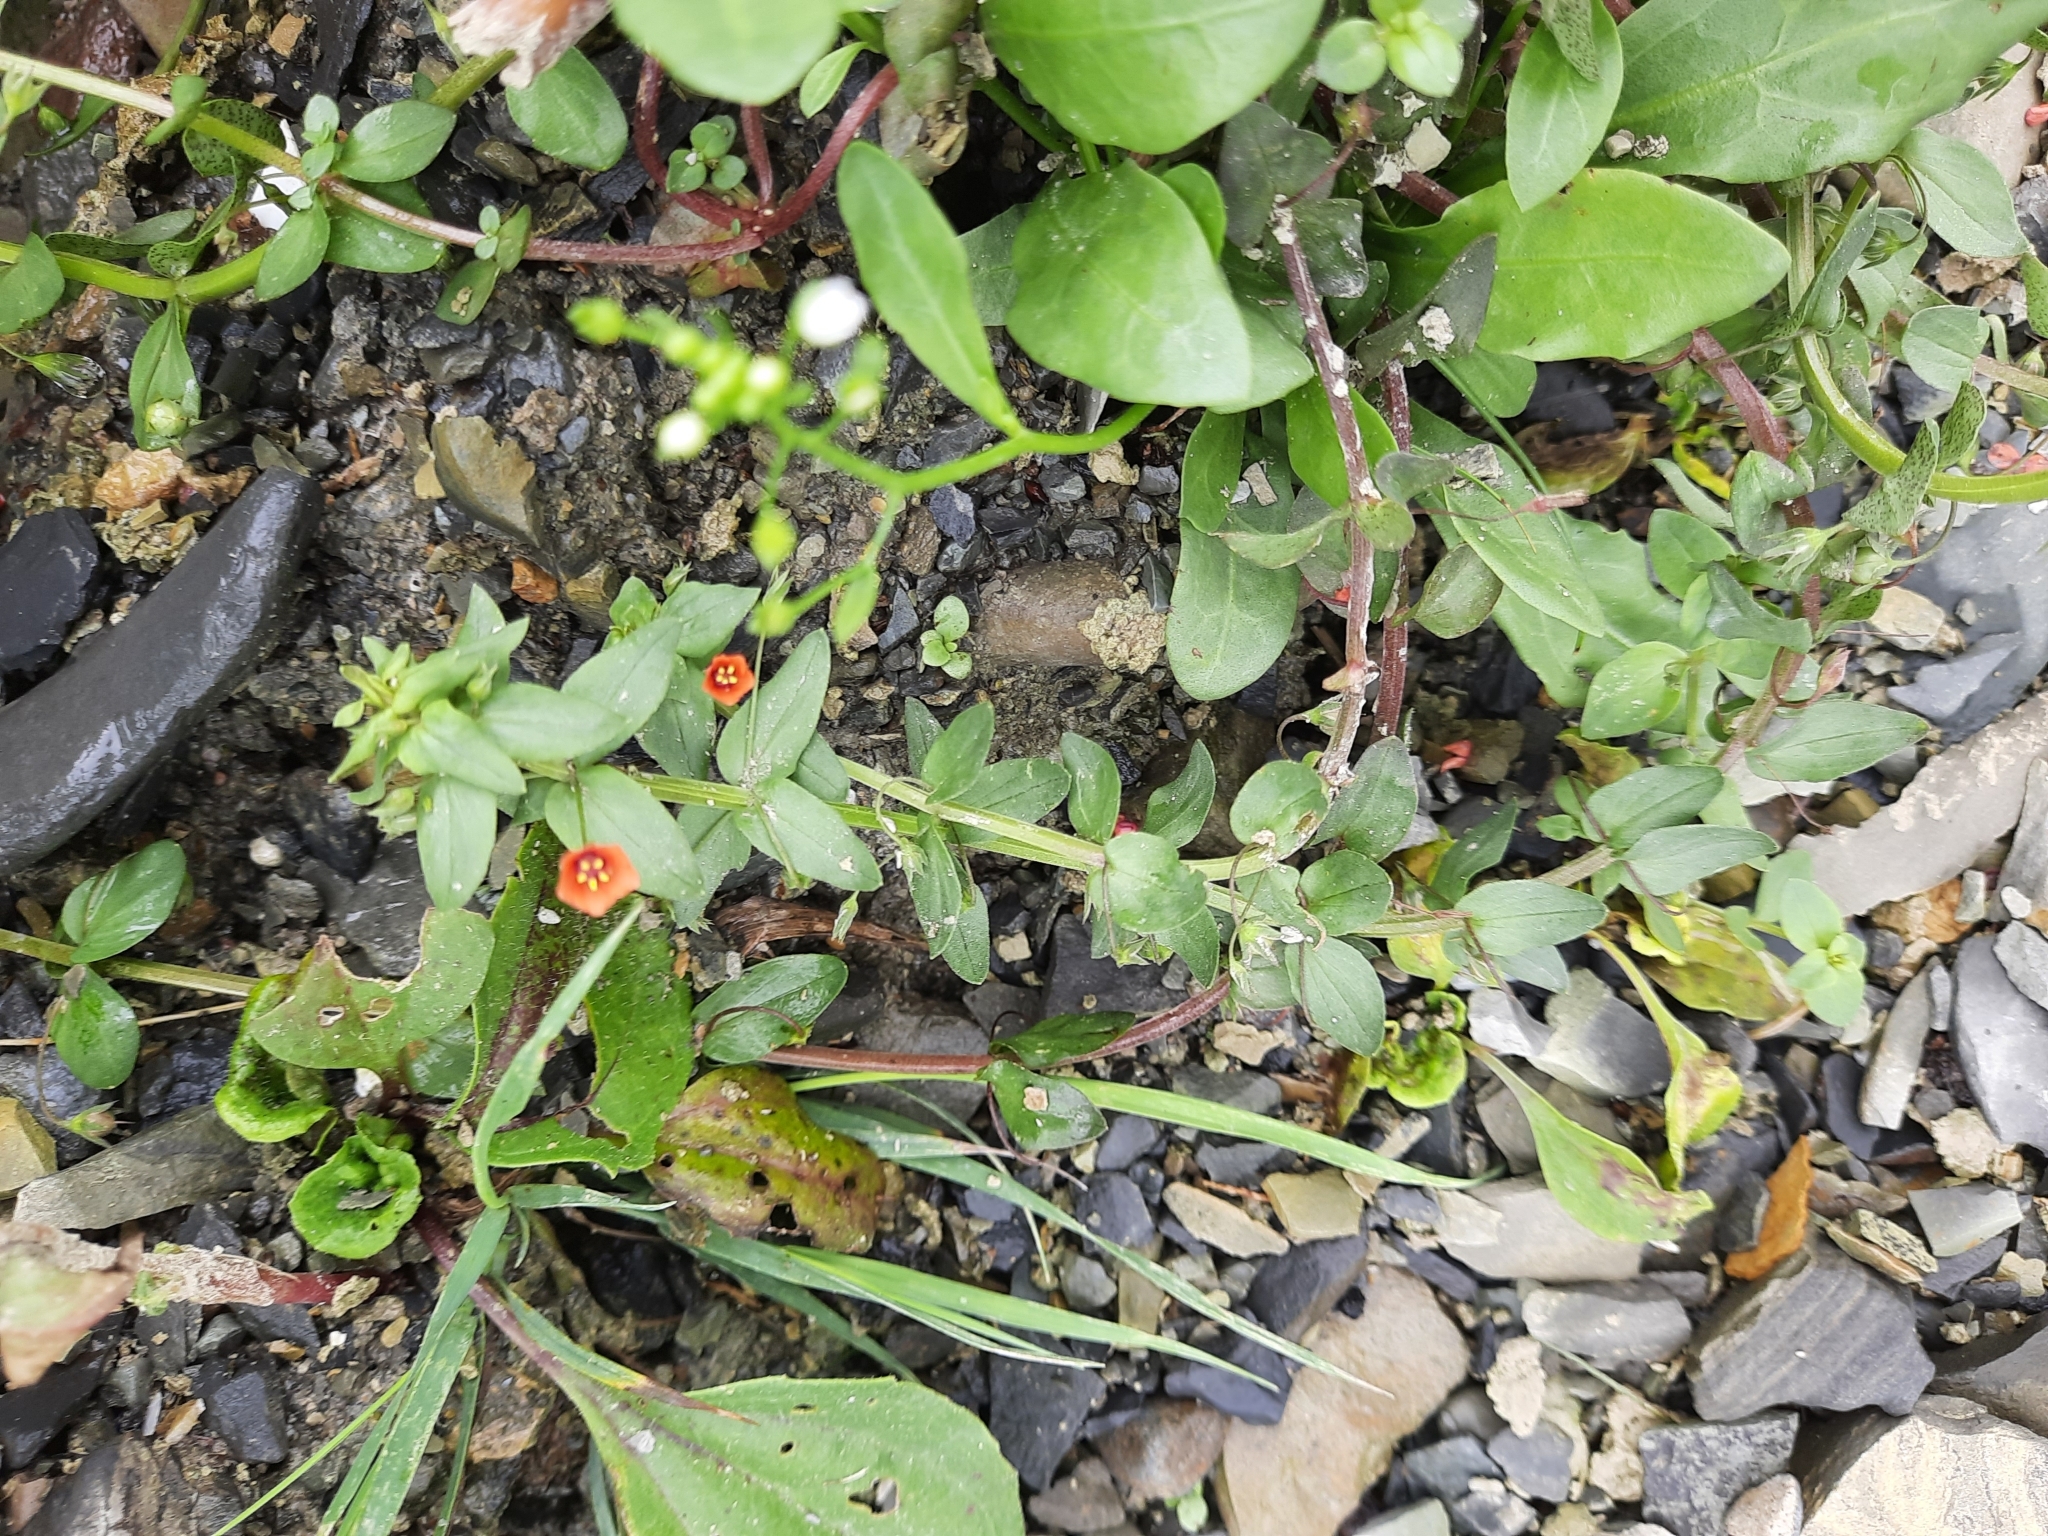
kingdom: Plantae
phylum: Tracheophyta
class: Magnoliopsida
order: Ericales
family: Primulaceae
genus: Lysimachia
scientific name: Lysimachia arvensis
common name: Scarlet pimpernel
